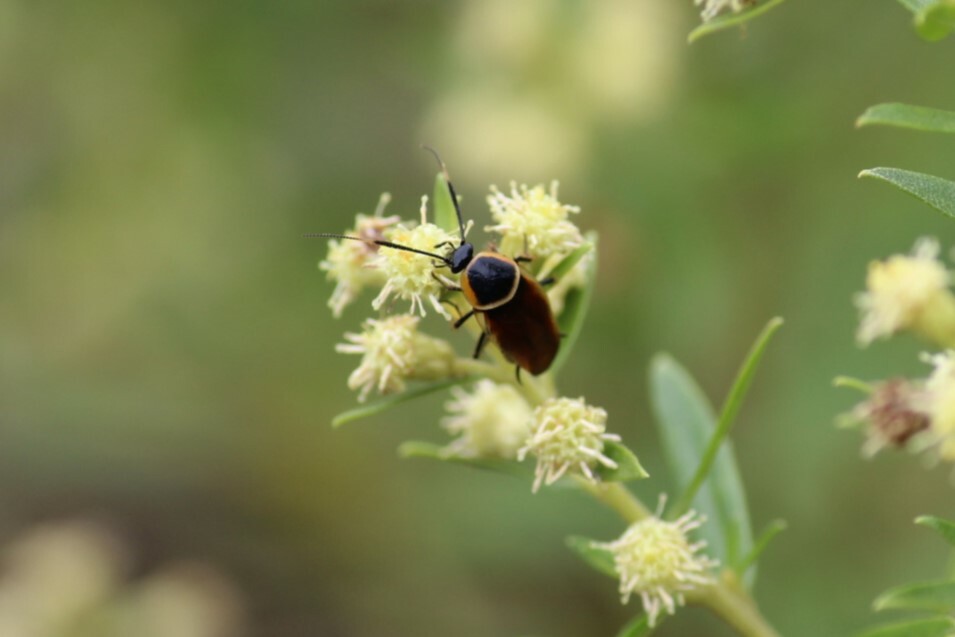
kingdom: Animalia
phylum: Arthropoda
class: Insecta
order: Blattodea
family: Ectobiidae
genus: Pseudomops
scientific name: Pseudomops neglectus
